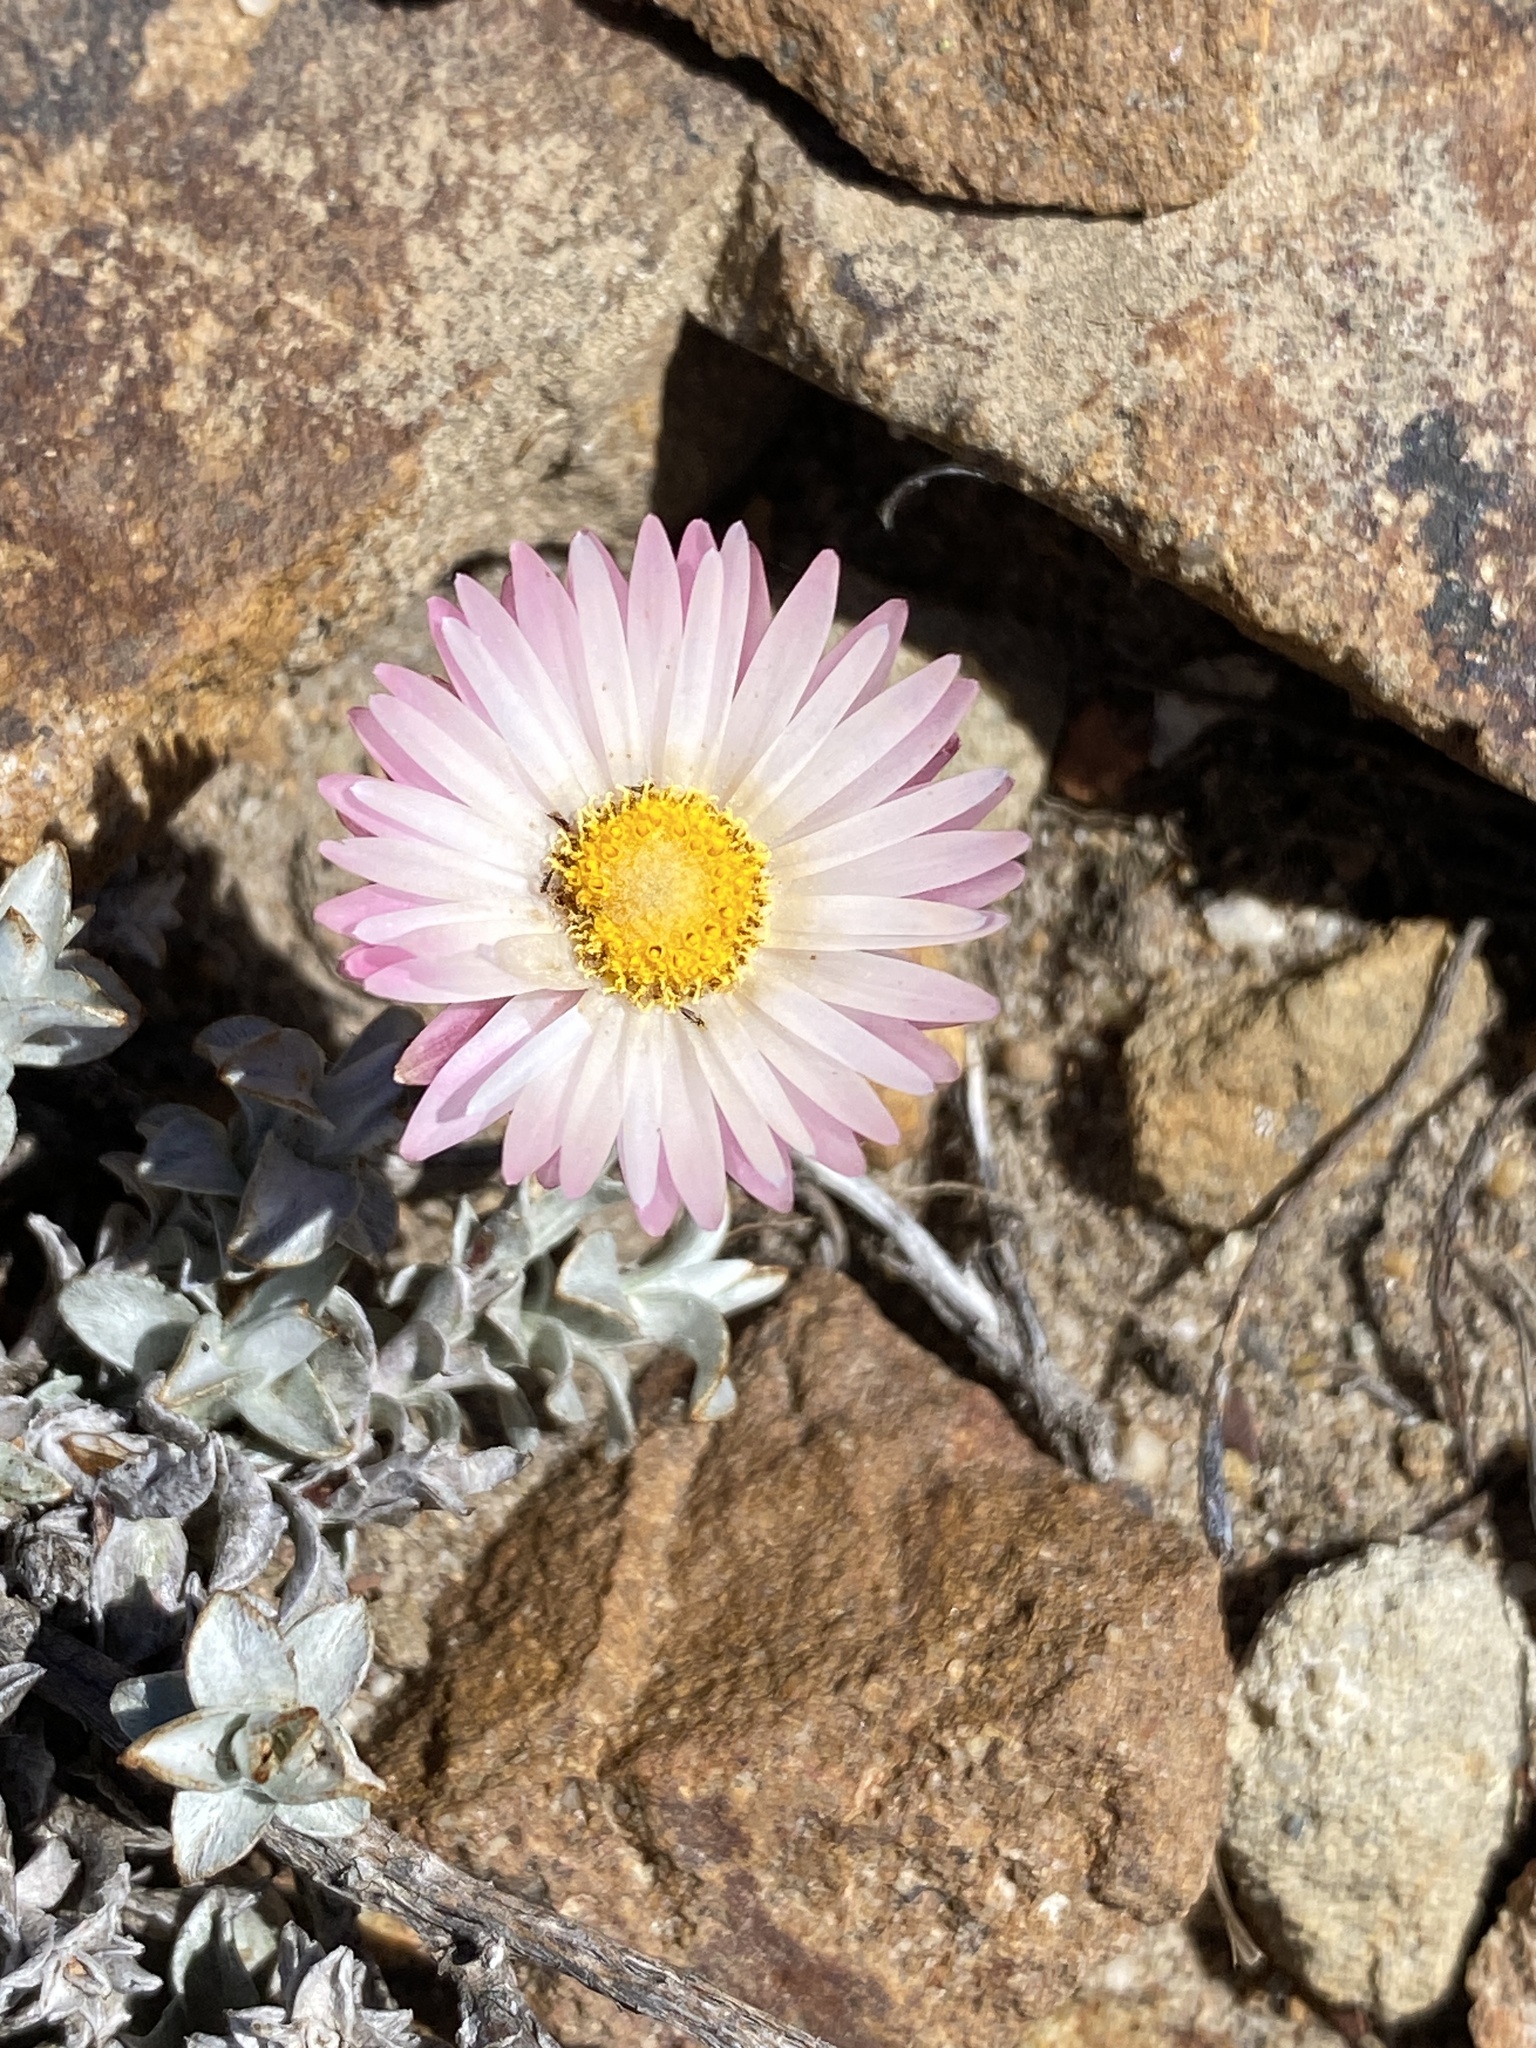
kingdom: Plantae
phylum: Tracheophyta
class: Magnoliopsida
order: Asterales
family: Asteraceae
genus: Syncarpha
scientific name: Syncarpha canescens
